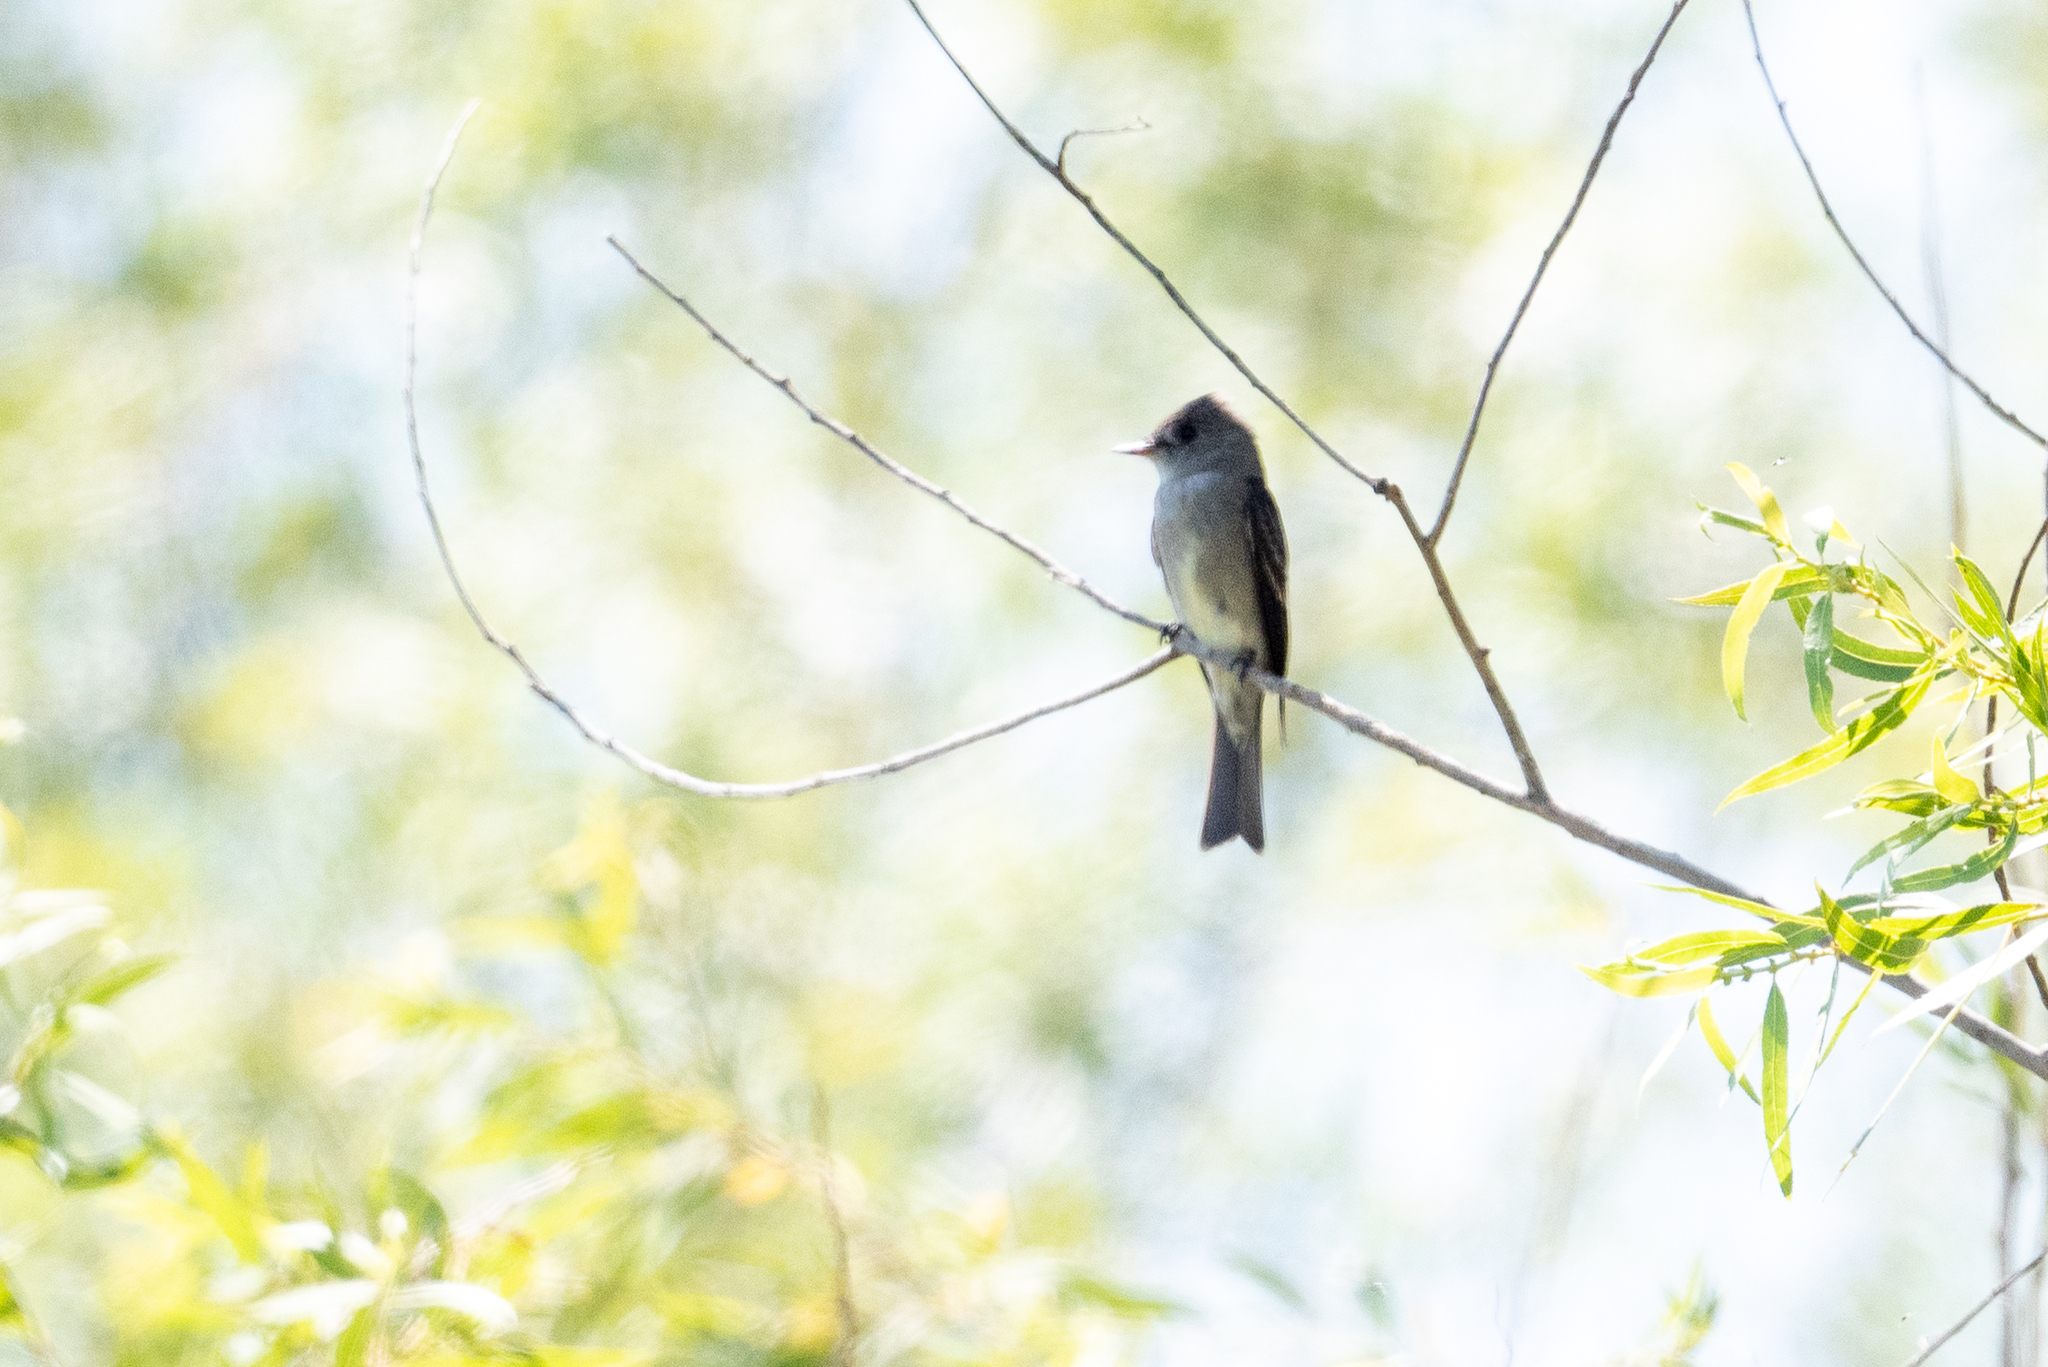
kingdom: Animalia
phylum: Chordata
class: Aves
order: Passeriformes
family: Tyrannidae
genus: Contopus
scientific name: Contopus sordidulus
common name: Western wood-pewee
